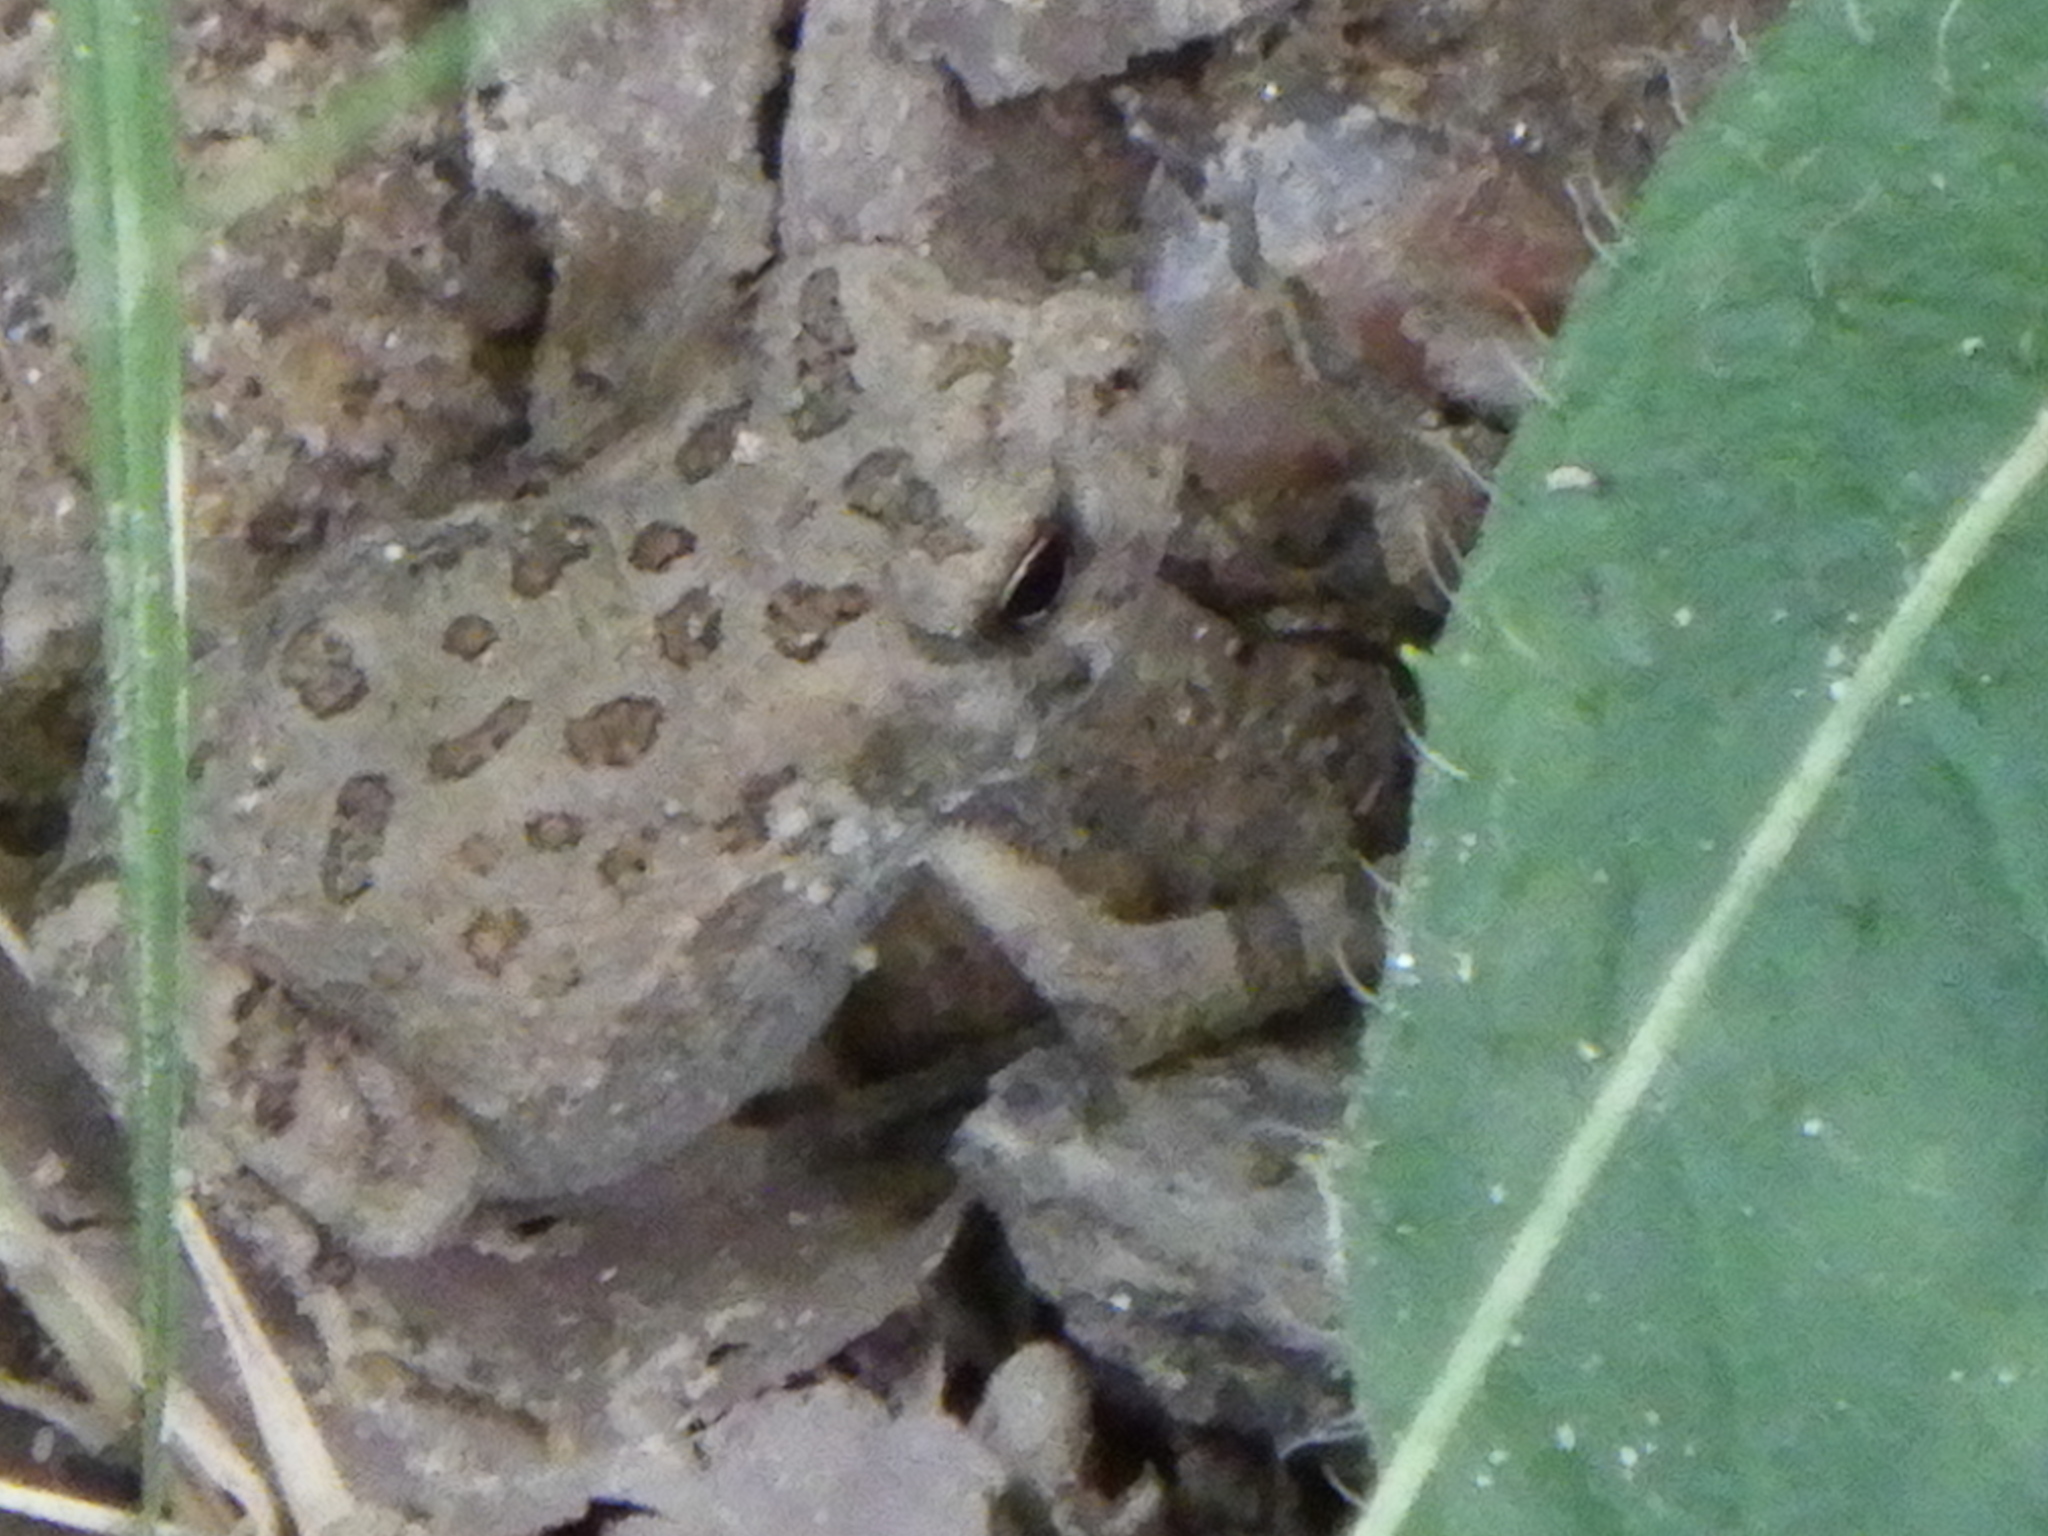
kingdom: Animalia
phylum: Chordata
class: Amphibia
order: Anura
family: Bufonidae
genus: Anaxyrus
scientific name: Anaxyrus fowleri
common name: Fowler's toad
